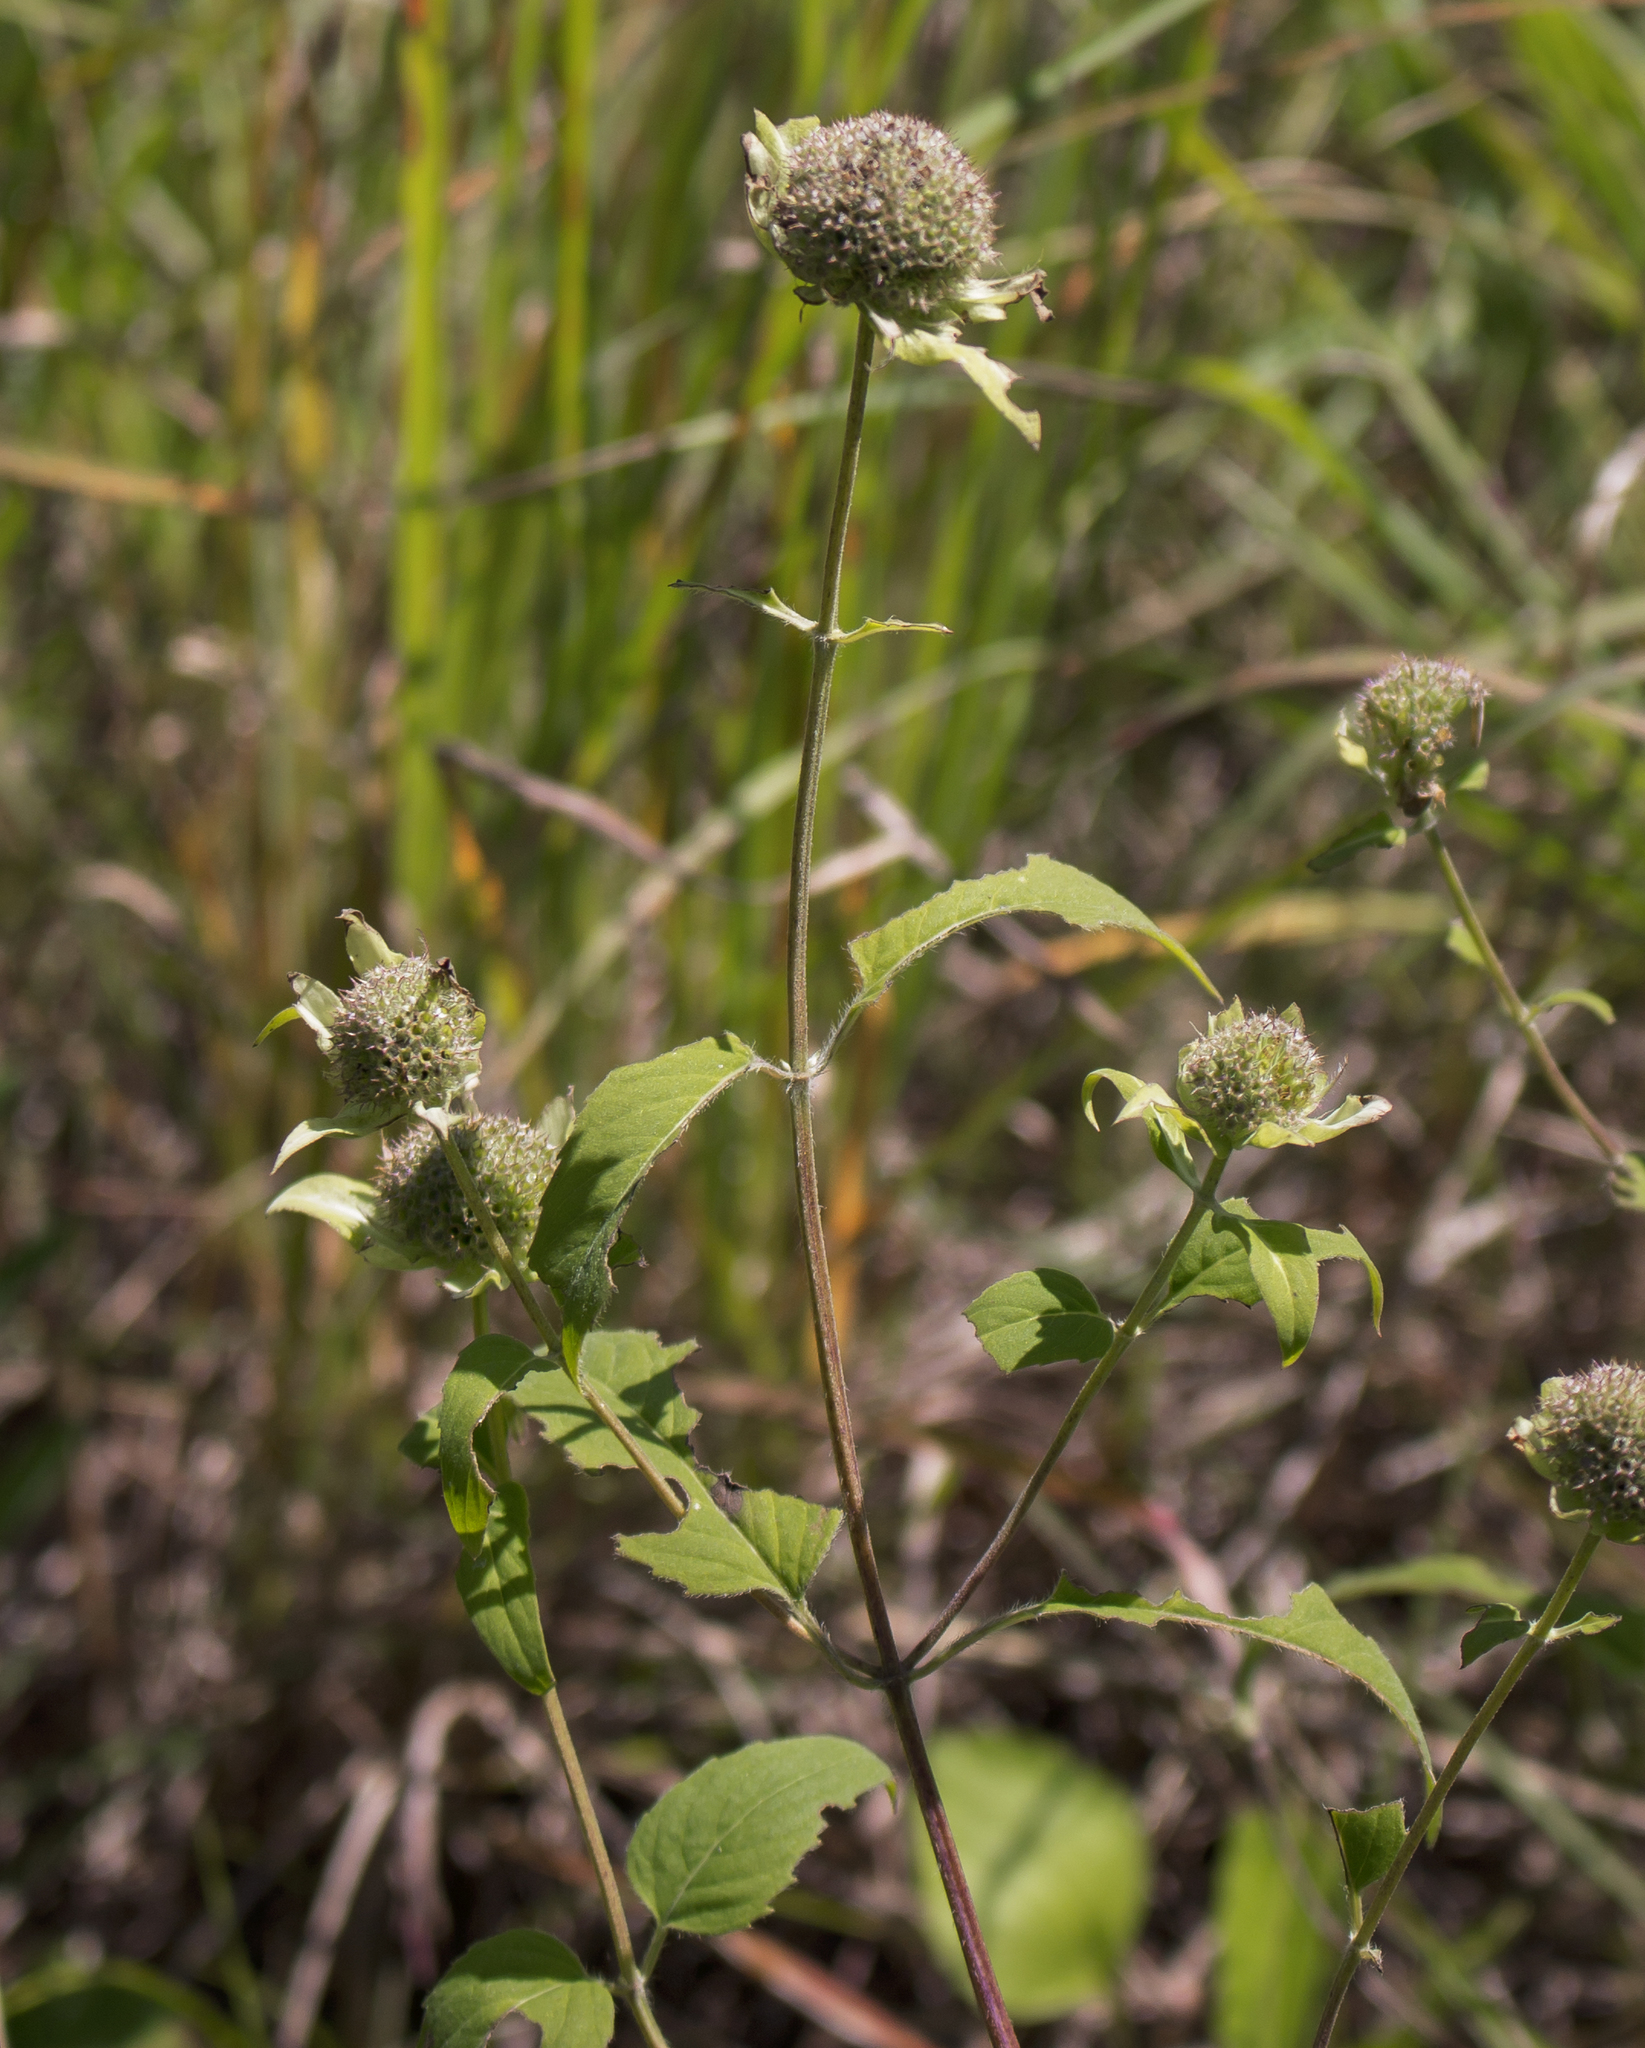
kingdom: Plantae
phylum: Tracheophyta
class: Magnoliopsida
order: Lamiales
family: Lamiaceae
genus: Monarda
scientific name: Monarda fistulosa
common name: Purple beebalm
